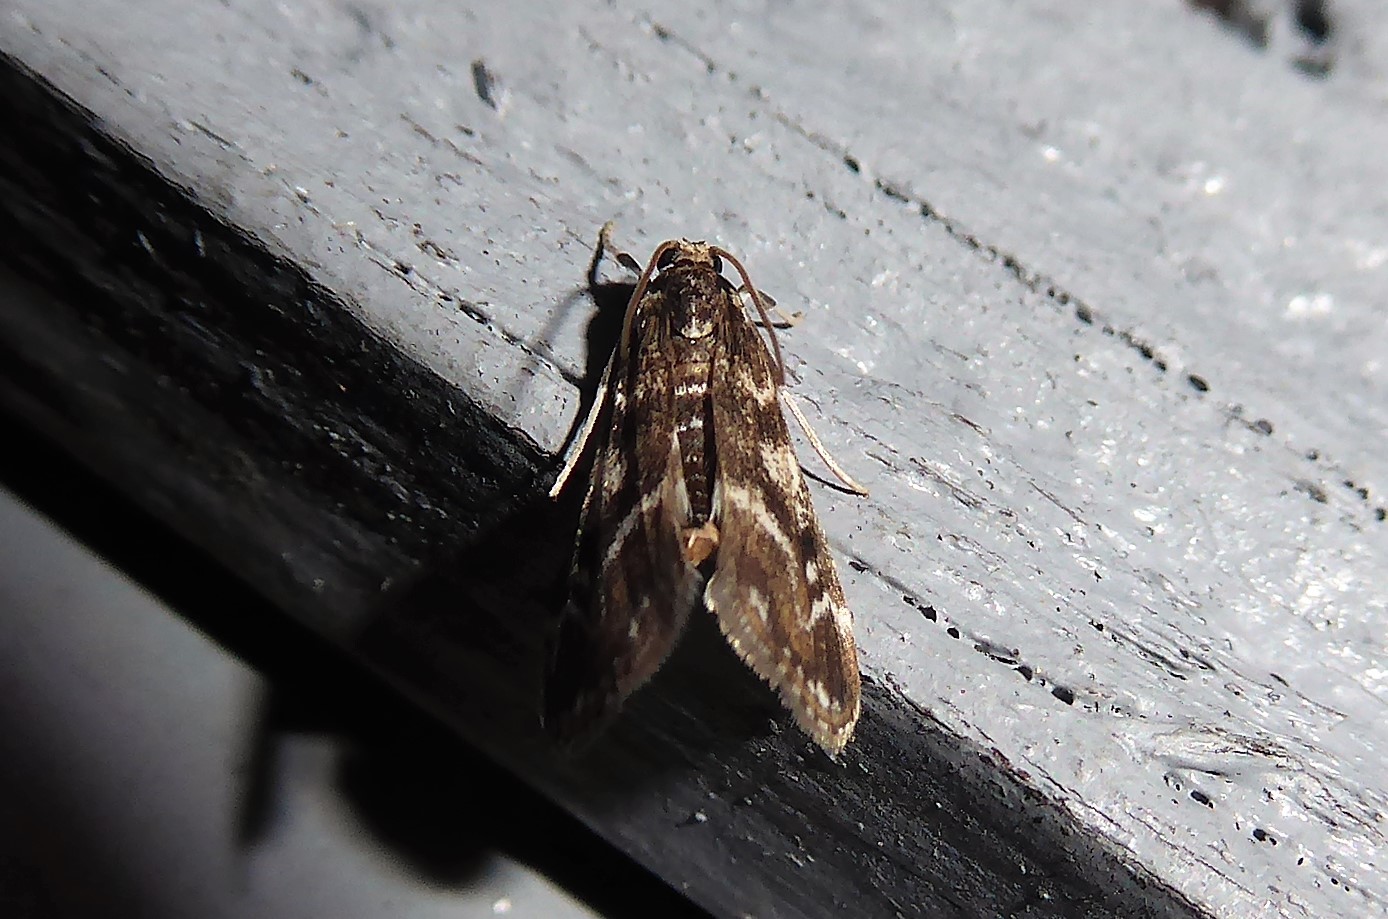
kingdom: Animalia
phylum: Arthropoda
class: Insecta
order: Lepidoptera
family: Crambidae
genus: Hygraula
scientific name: Hygraula nitens
